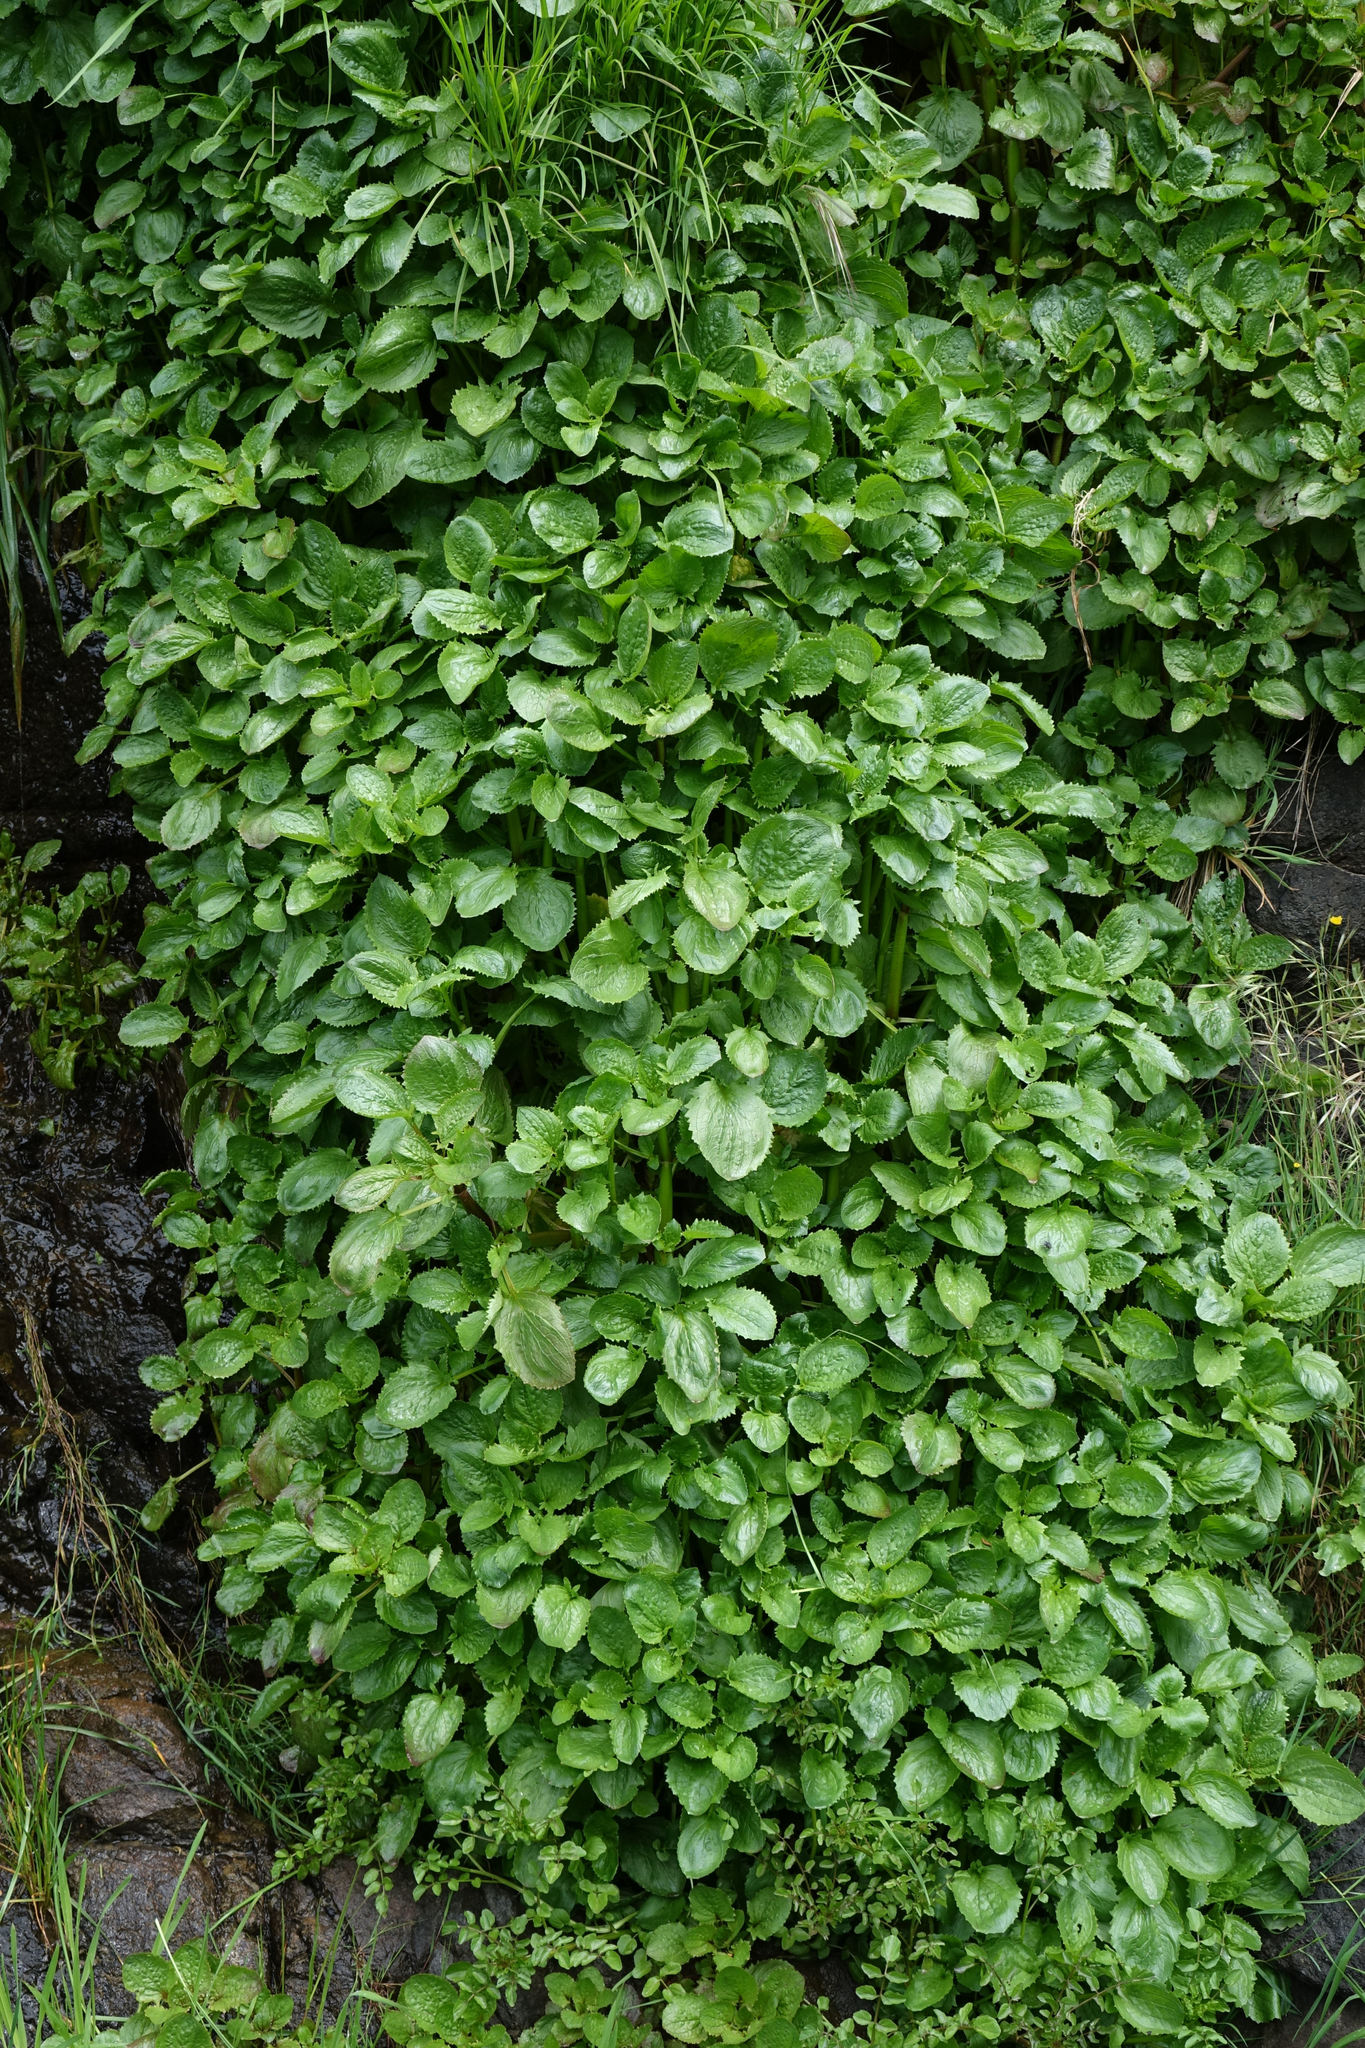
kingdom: Plantae
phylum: Tracheophyta
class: Magnoliopsida
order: Lamiales
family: Phrymaceae
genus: Erythranthe
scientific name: Erythranthe guttata
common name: Monkeyflower
